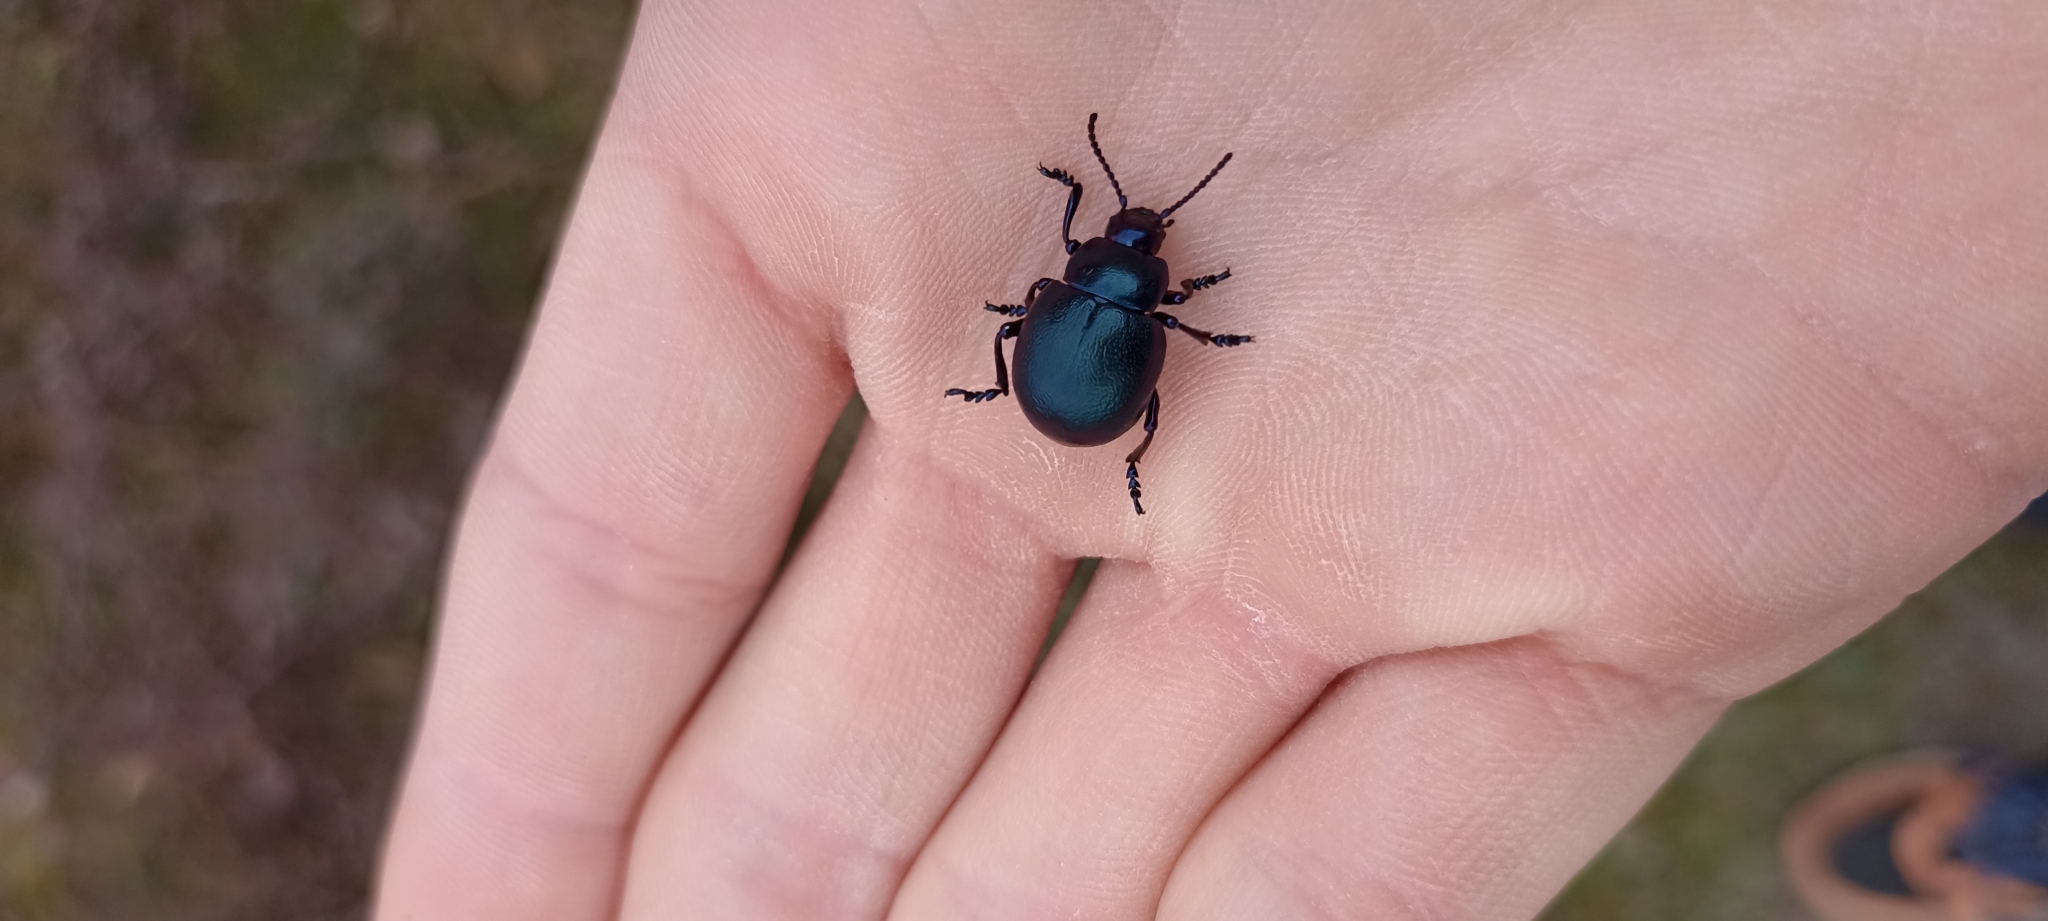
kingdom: Animalia
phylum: Arthropoda
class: Insecta
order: Coleoptera
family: Chrysomelidae
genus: Timarcha
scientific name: Timarcha goettingensis
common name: Small bloody-nosed beetle
